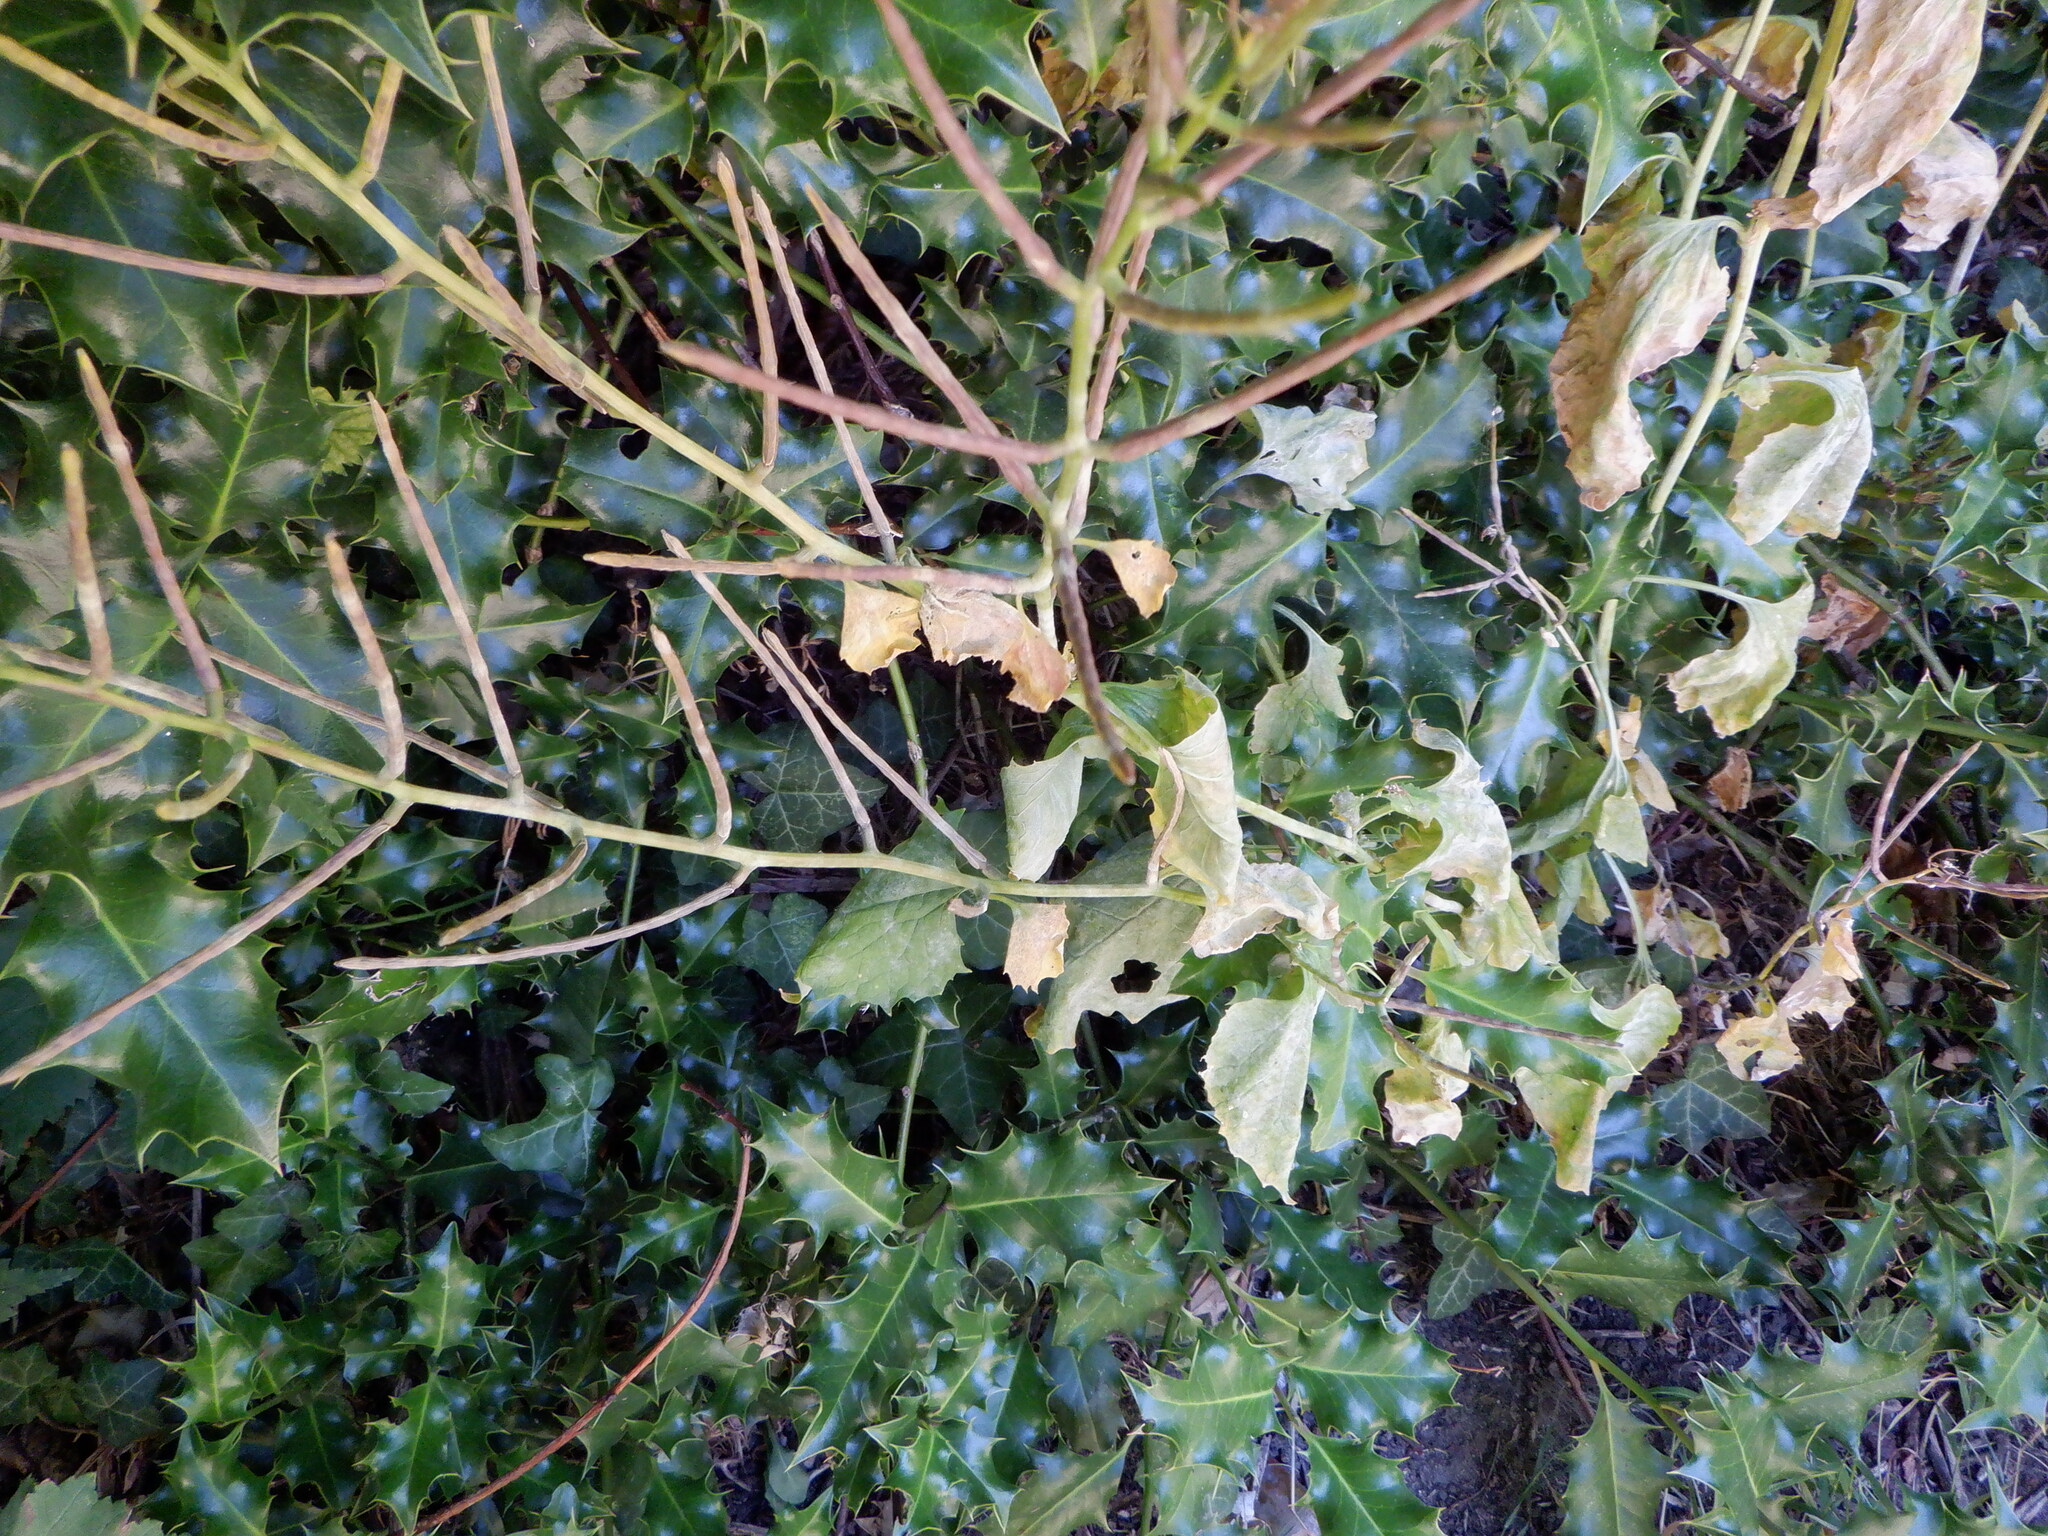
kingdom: Plantae
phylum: Tracheophyta
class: Magnoliopsida
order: Brassicales
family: Brassicaceae
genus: Alliaria
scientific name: Alliaria petiolata
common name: Garlic mustard
